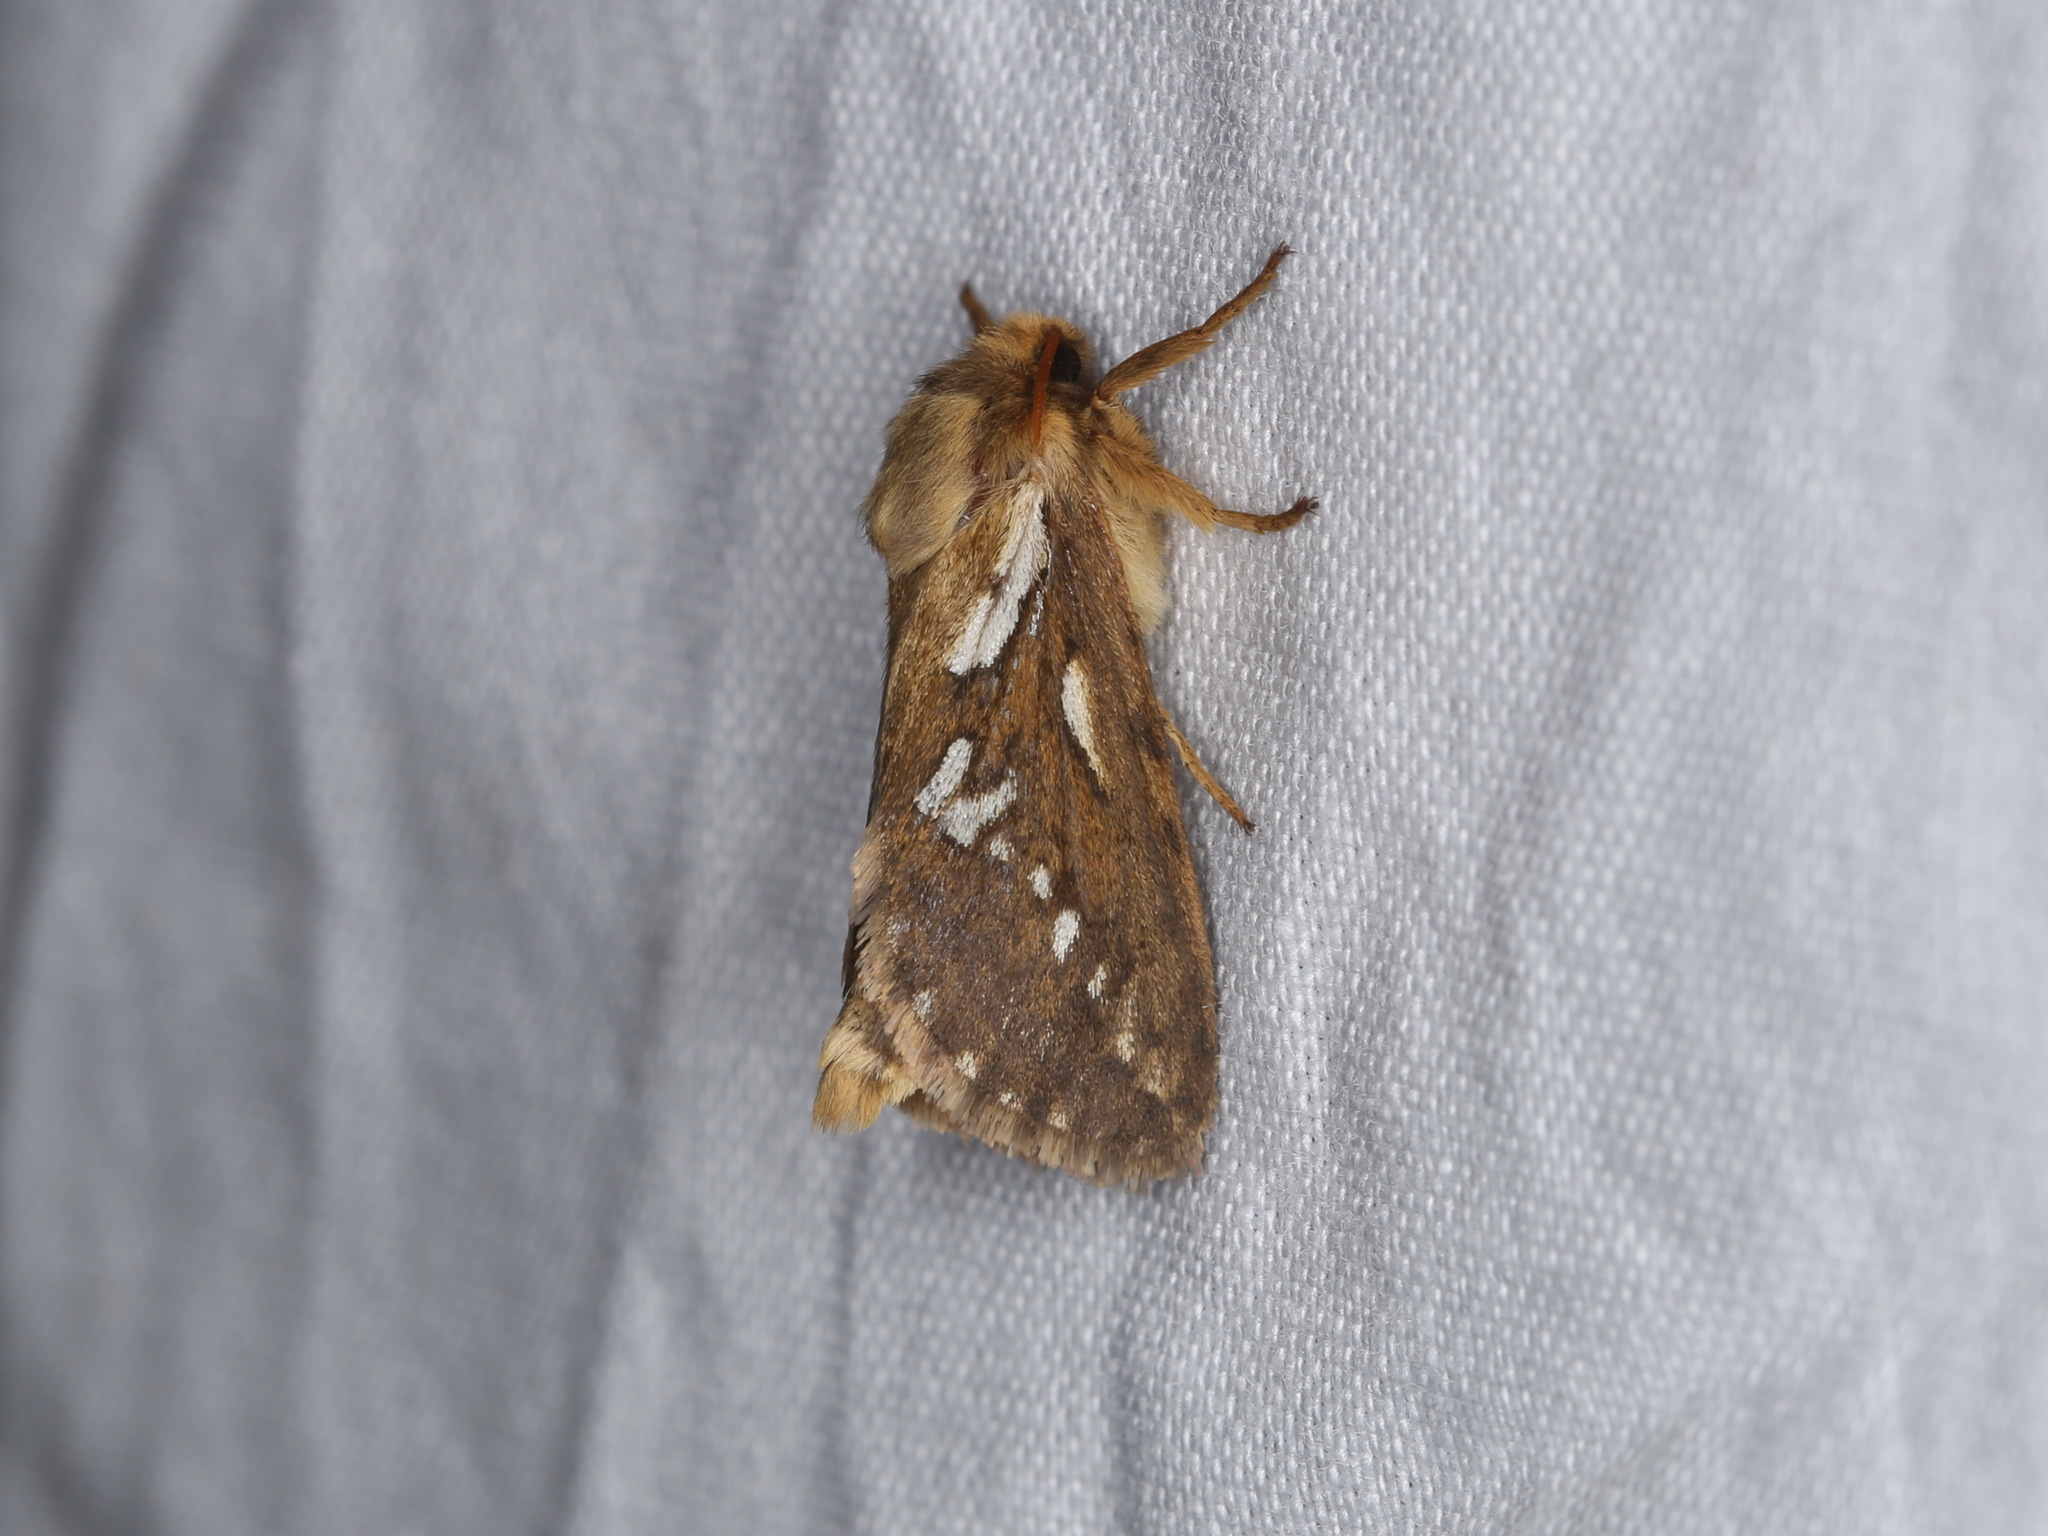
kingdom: Animalia
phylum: Arthropoda
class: Insecta
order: Lepidoptera
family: Hepialidae
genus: Korscheltellus
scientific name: Korscheltellus lupulina
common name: Common swift
